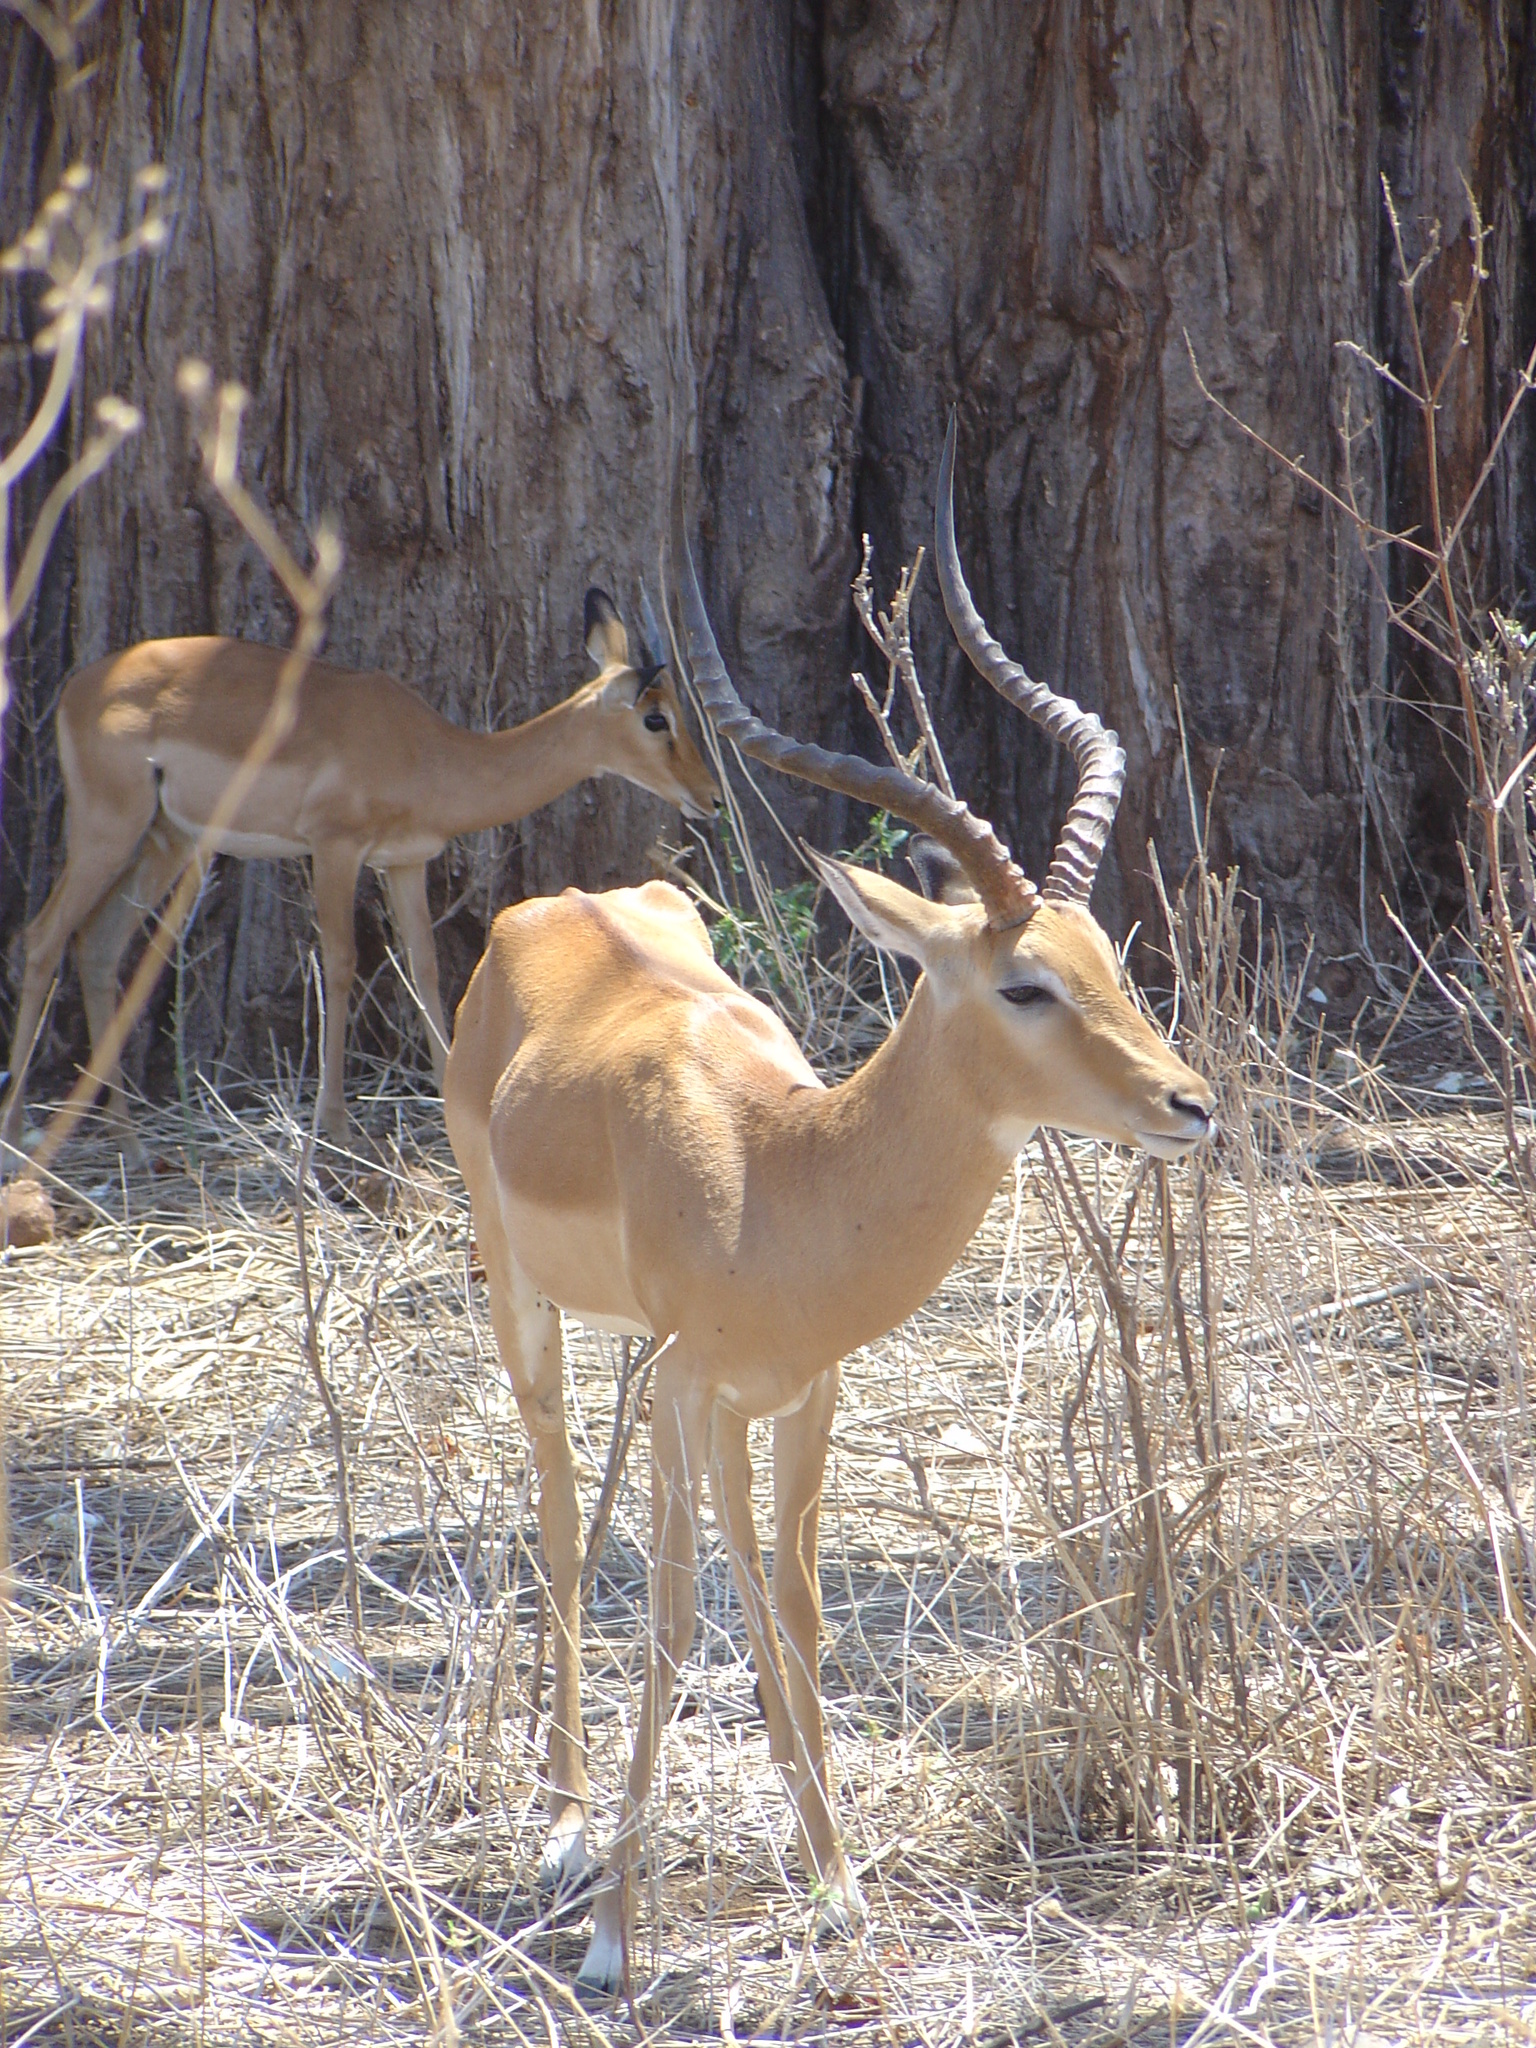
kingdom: Animalia
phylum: Chordata
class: Mammalia
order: Artiodactyla
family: Bovidae
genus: Aepyceros
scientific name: Aepyceros melampus
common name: Impala
